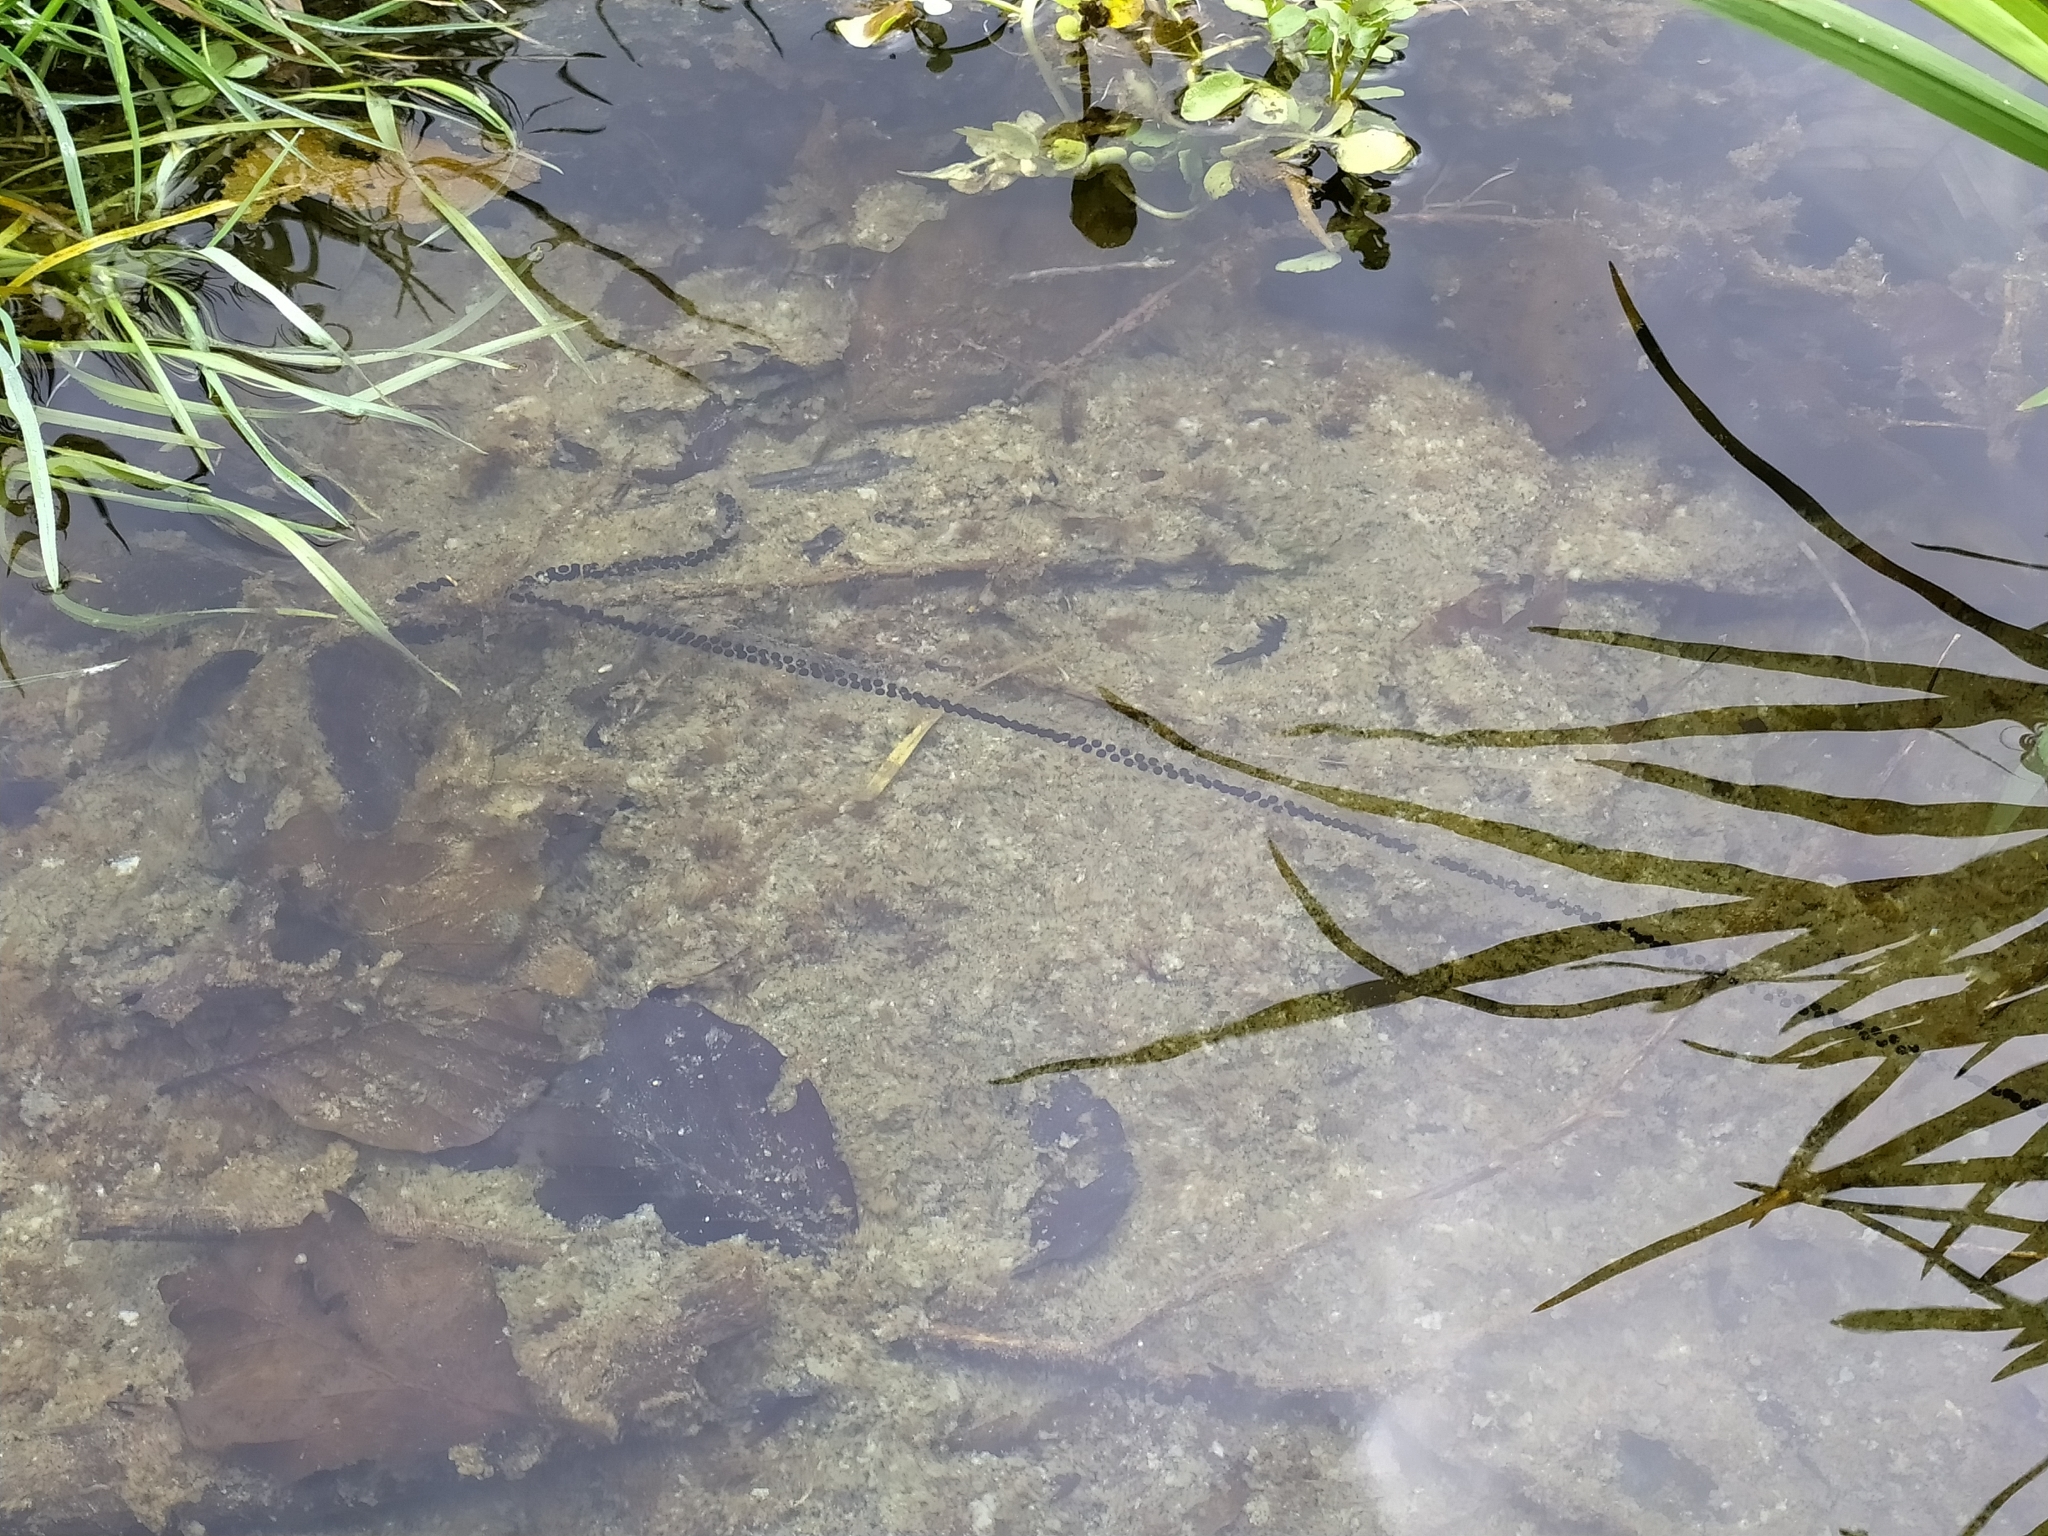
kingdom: Animalia
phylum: Chordata
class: Amphibia
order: Anura
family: Bufonidae
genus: Bufo
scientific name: Bufo bufo
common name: Common toad
